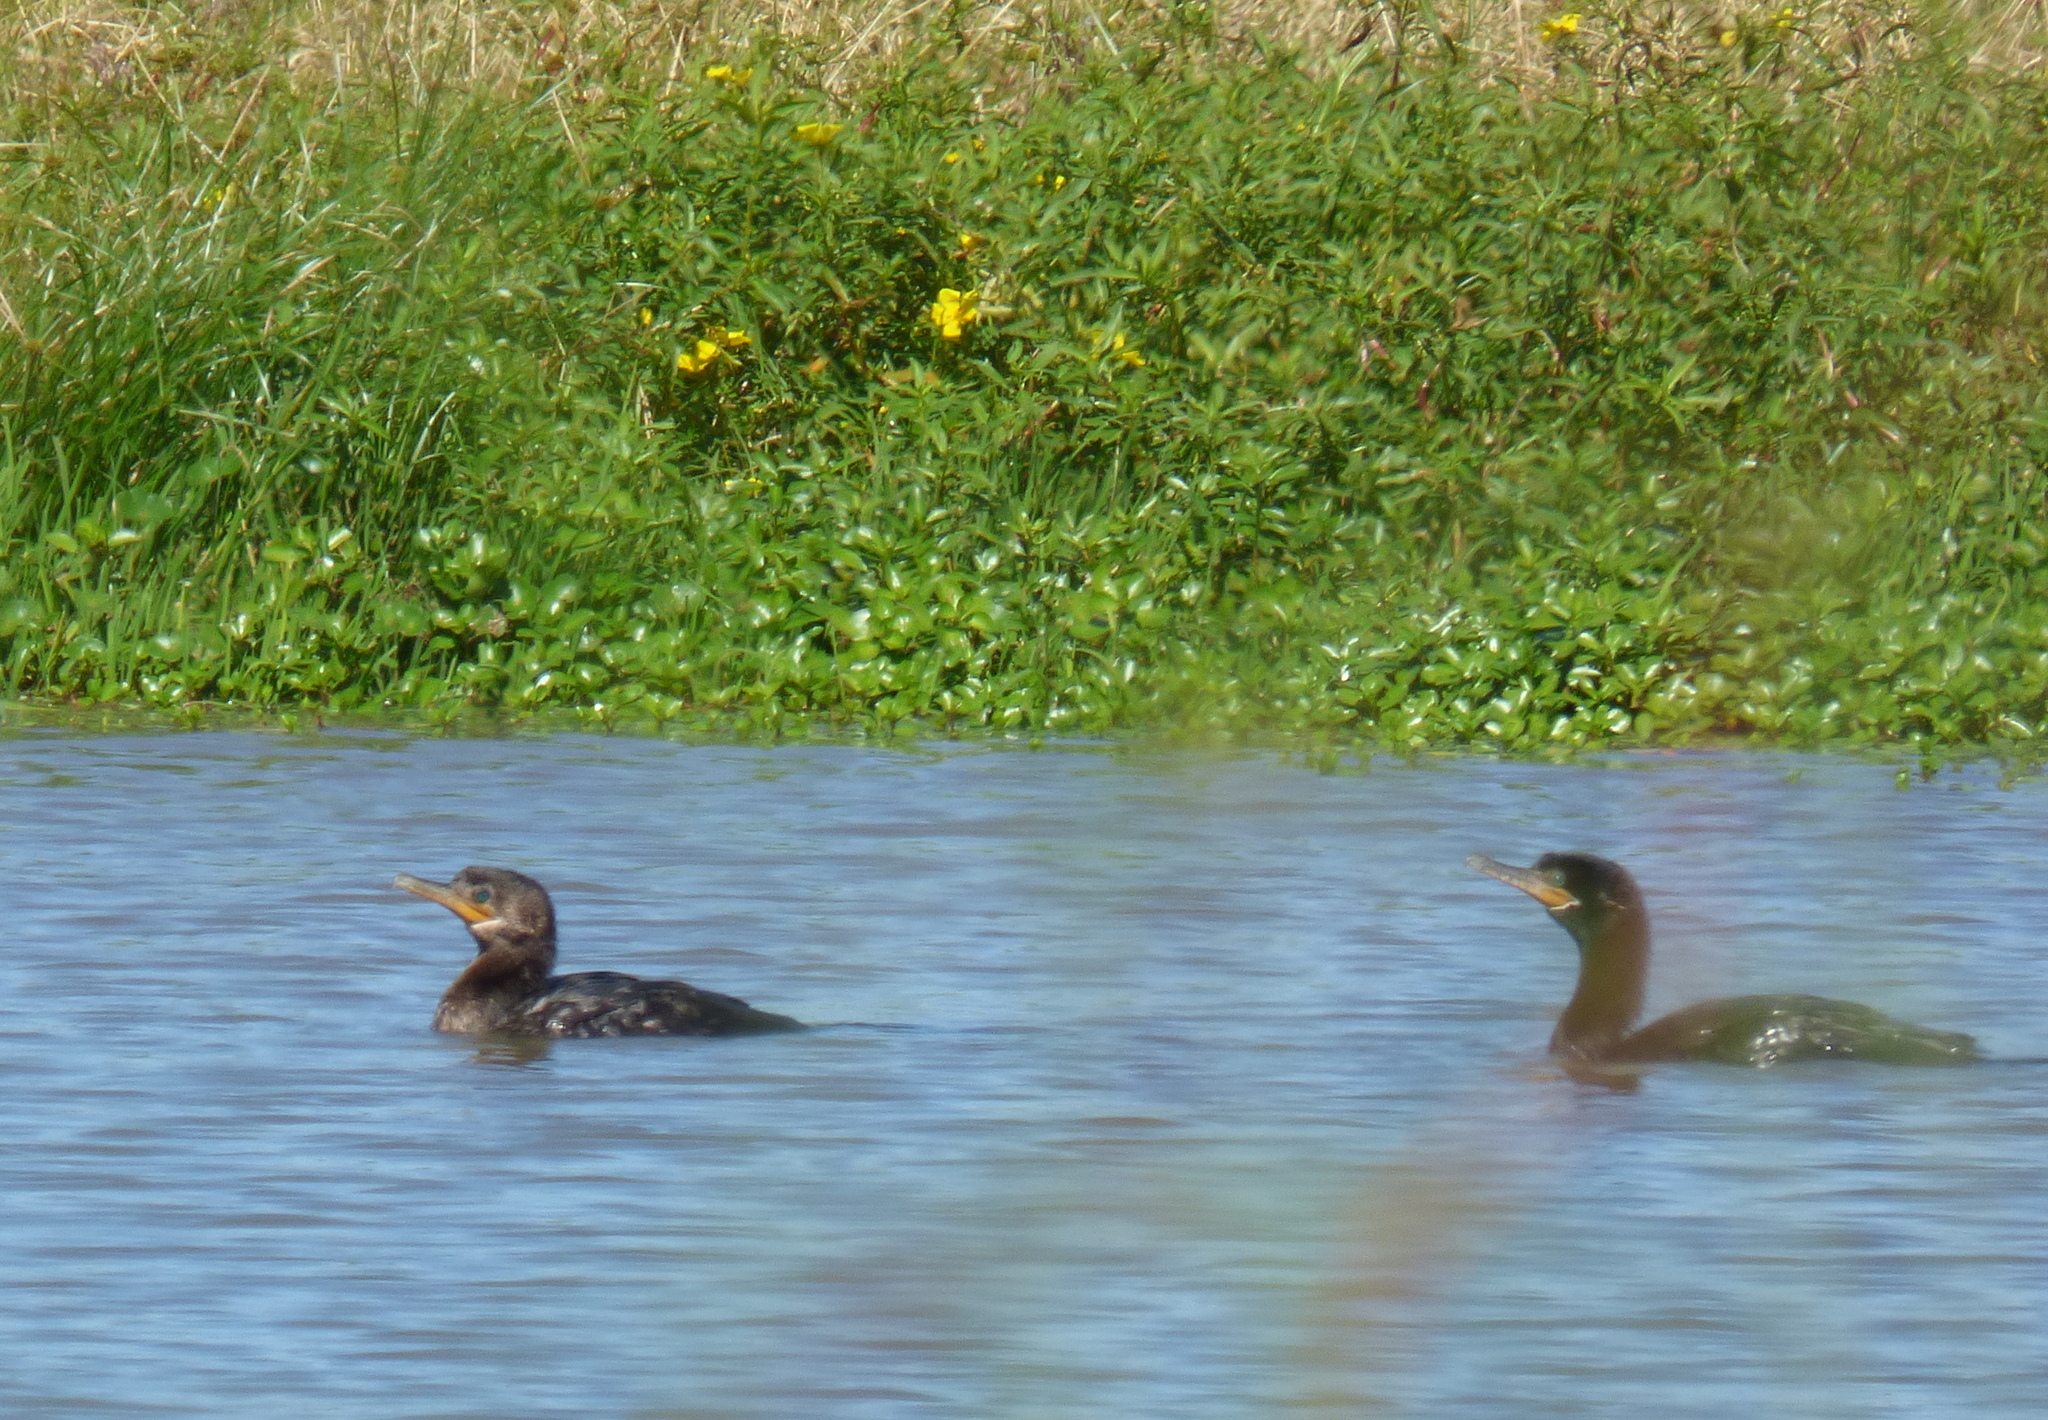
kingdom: Animalia
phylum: Chordata
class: Aves
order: Suliformes
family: Phalacrocoracidae
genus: Phalacrocorax
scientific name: Phalacrocorax brasilianus
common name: Neotropic cormorant
